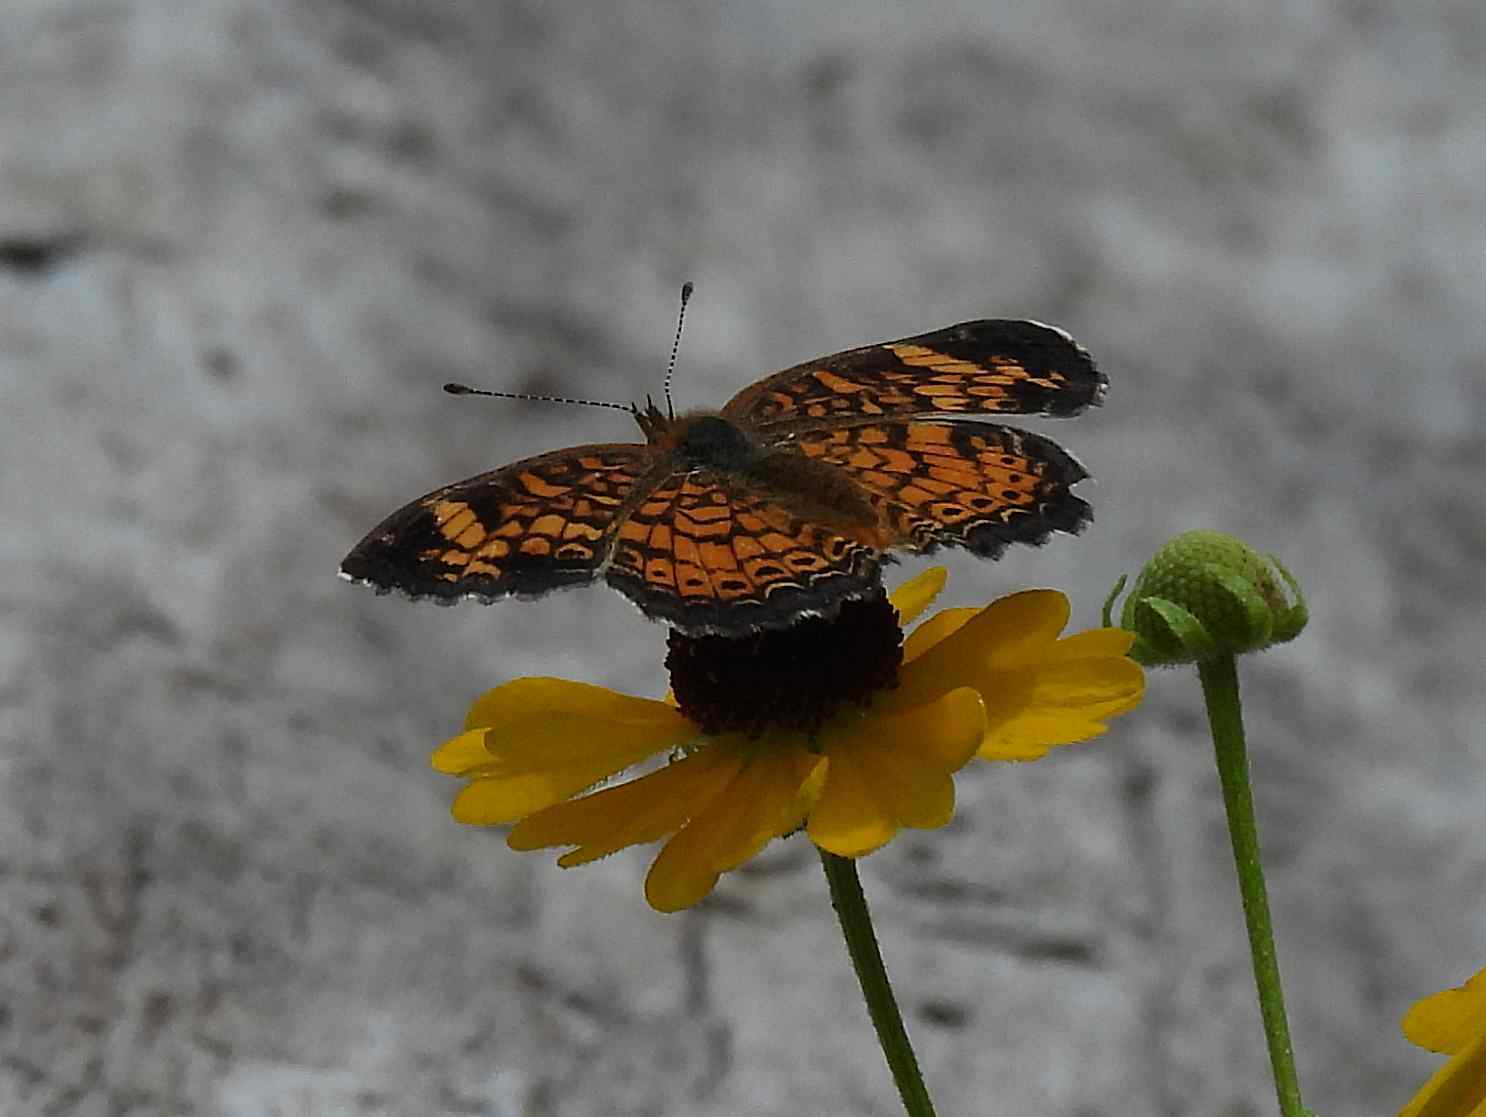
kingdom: Animalia
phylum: Arthropoda
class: Insecta
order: Lepidoptera
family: Nymphalidae
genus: Phyciodes
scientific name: Phyciodes tharos
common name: Pearl crescent
